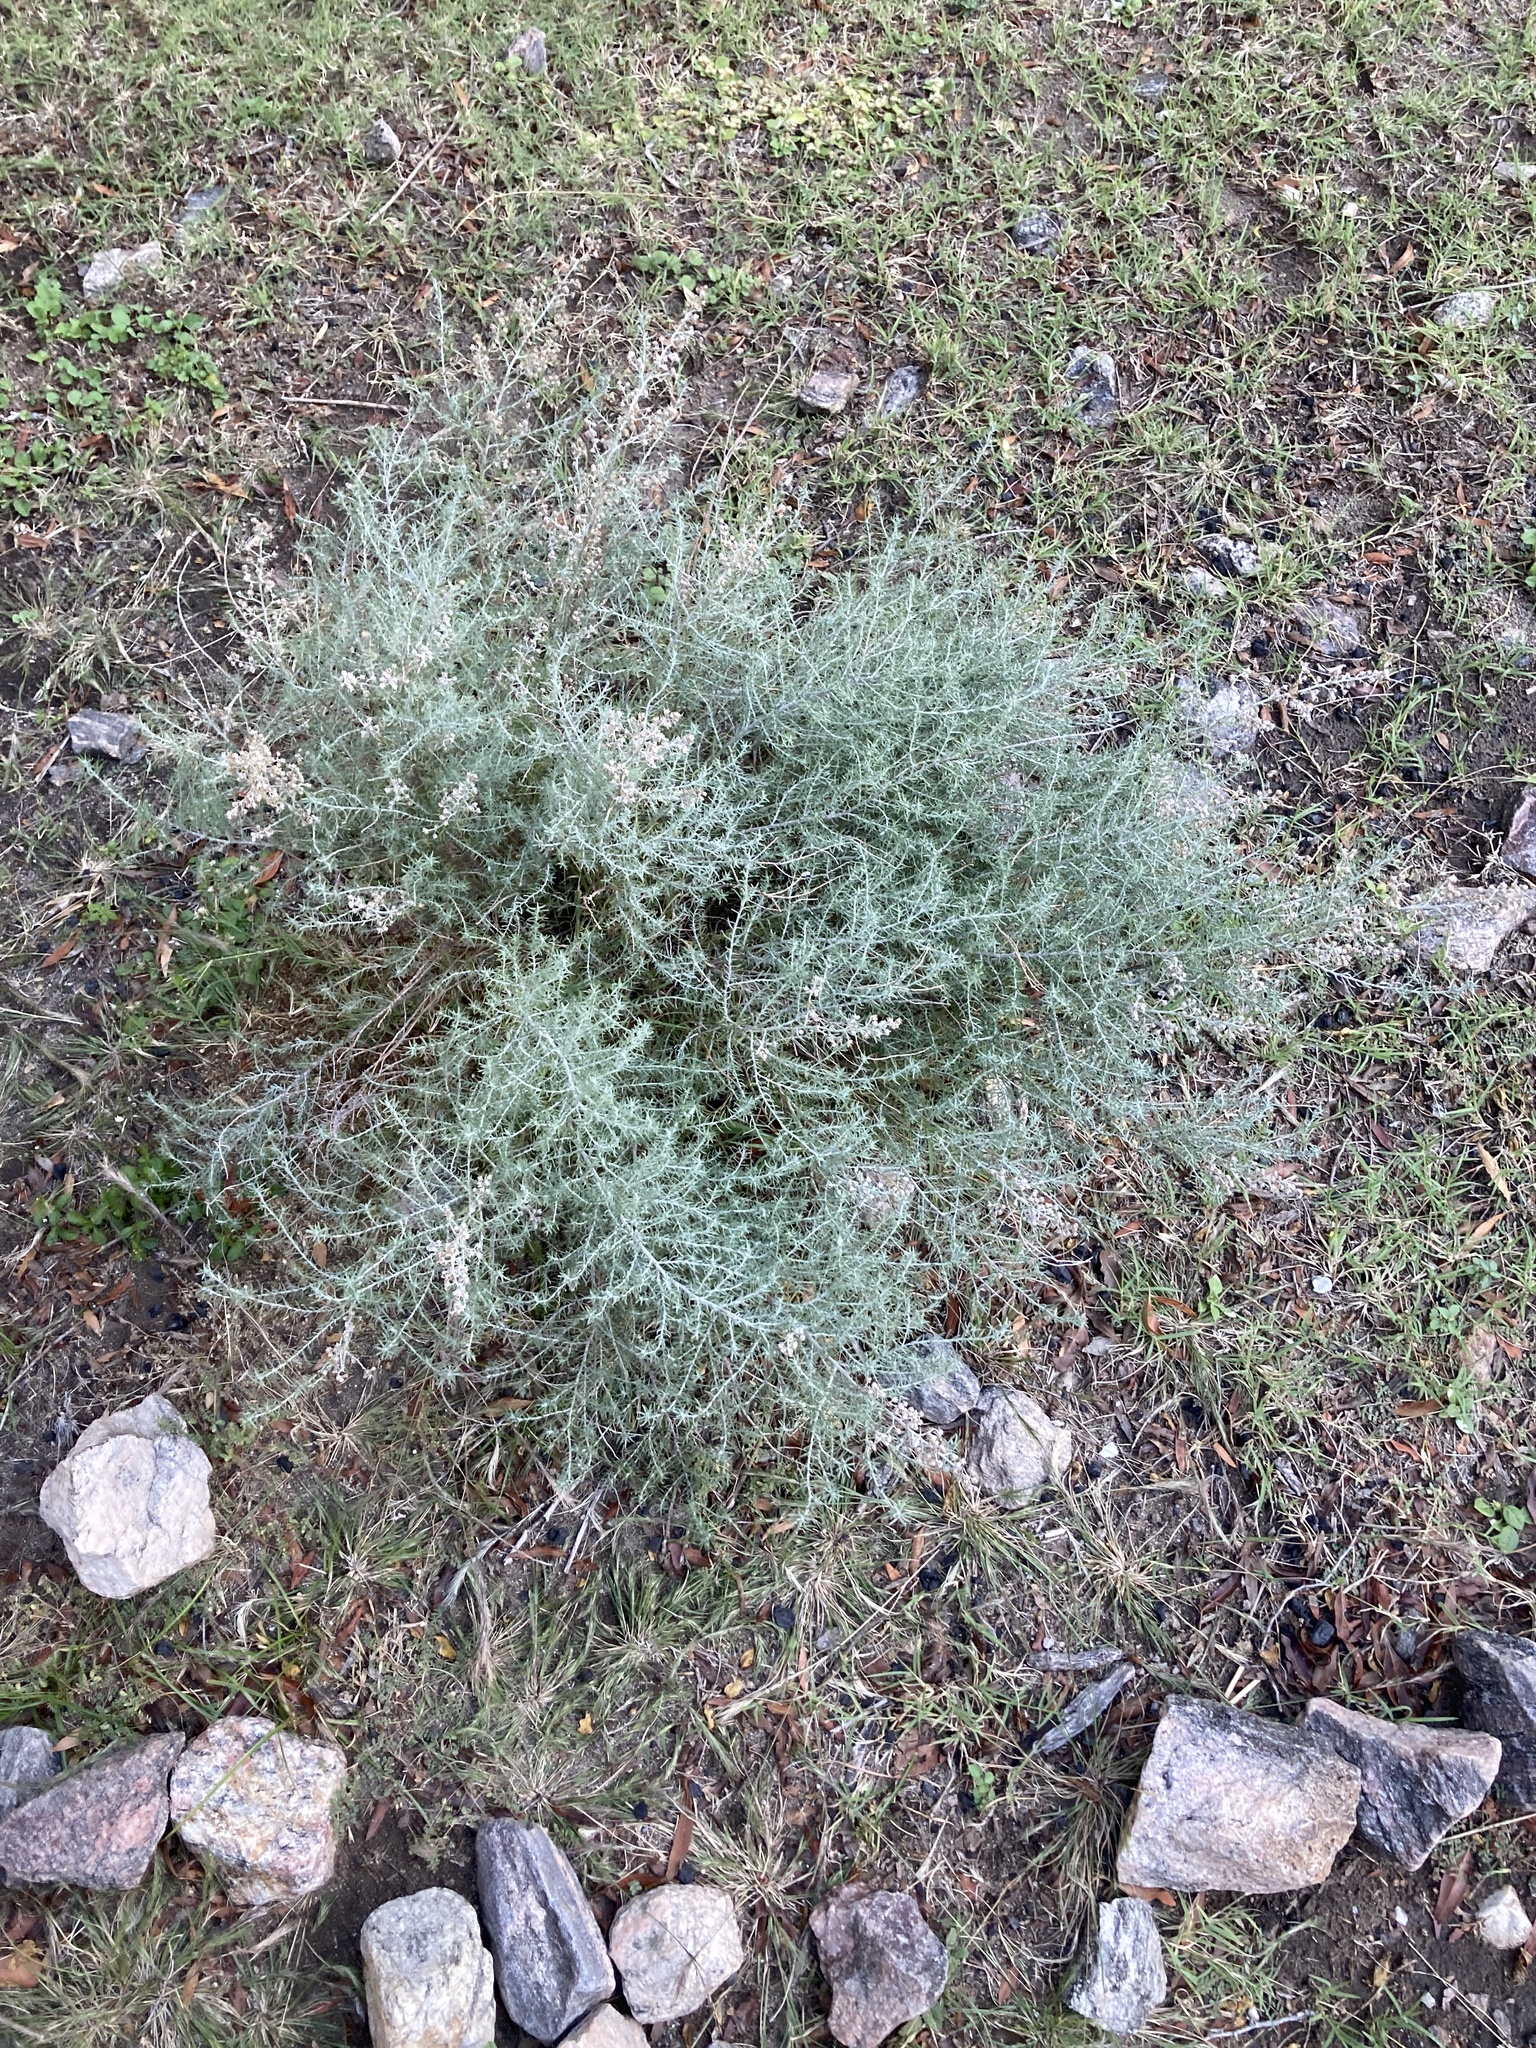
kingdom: Plantae
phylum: Tracheophyta
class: Magnoliopsida
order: Asterales
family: Asteraceae
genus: Baccharis
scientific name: Baccharis artemisioides
